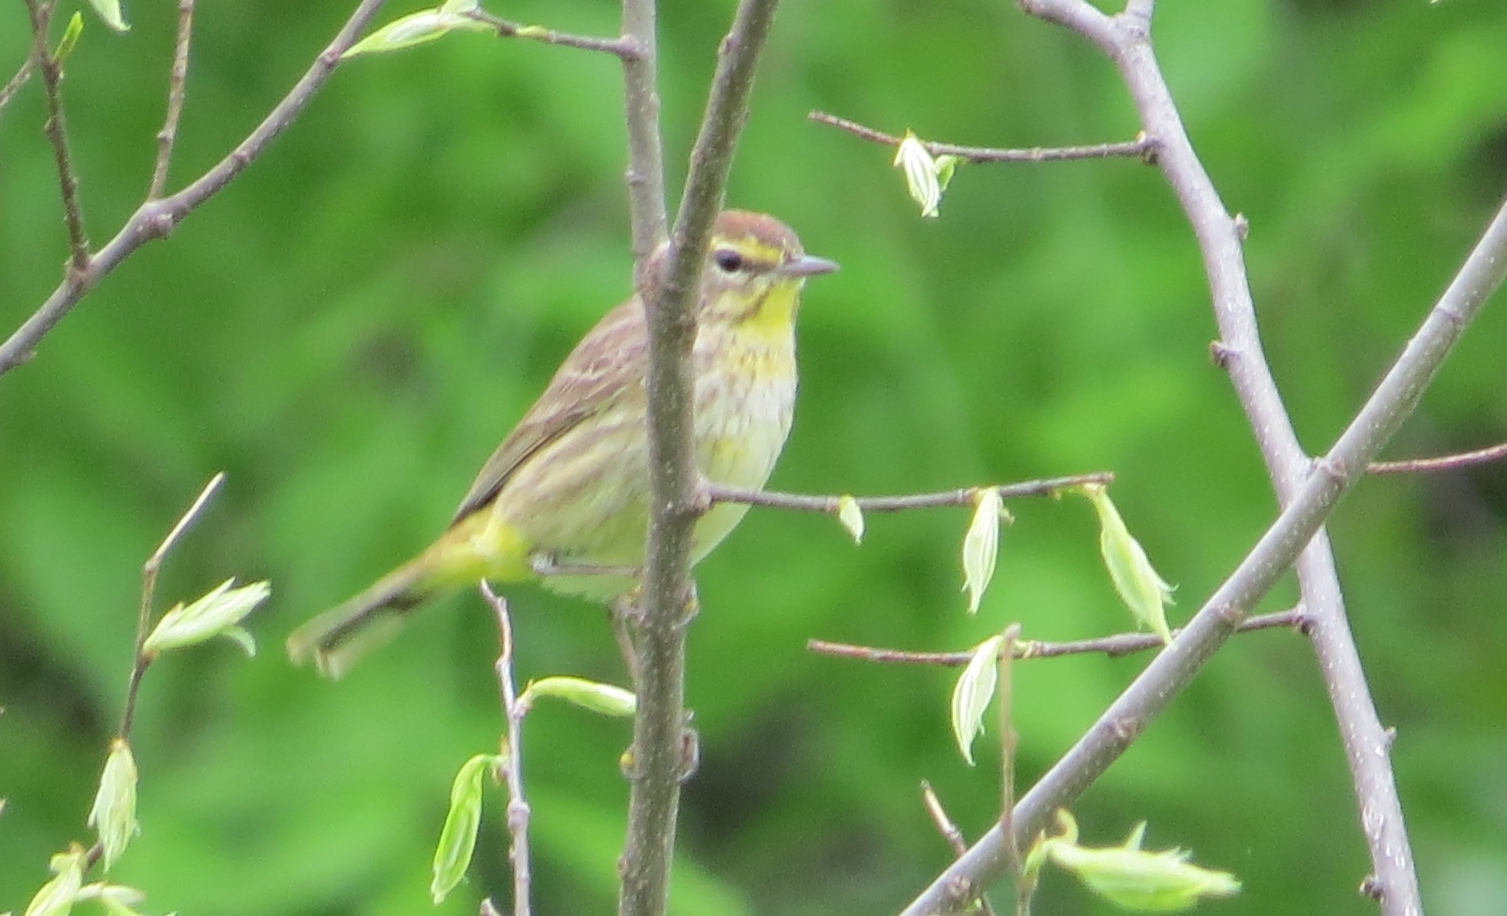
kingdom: Animalia
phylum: Chordata
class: Aves
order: Passeriformes
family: Parulidae
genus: Setophaga
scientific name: Setophaga palmarum
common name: Palm warbler
